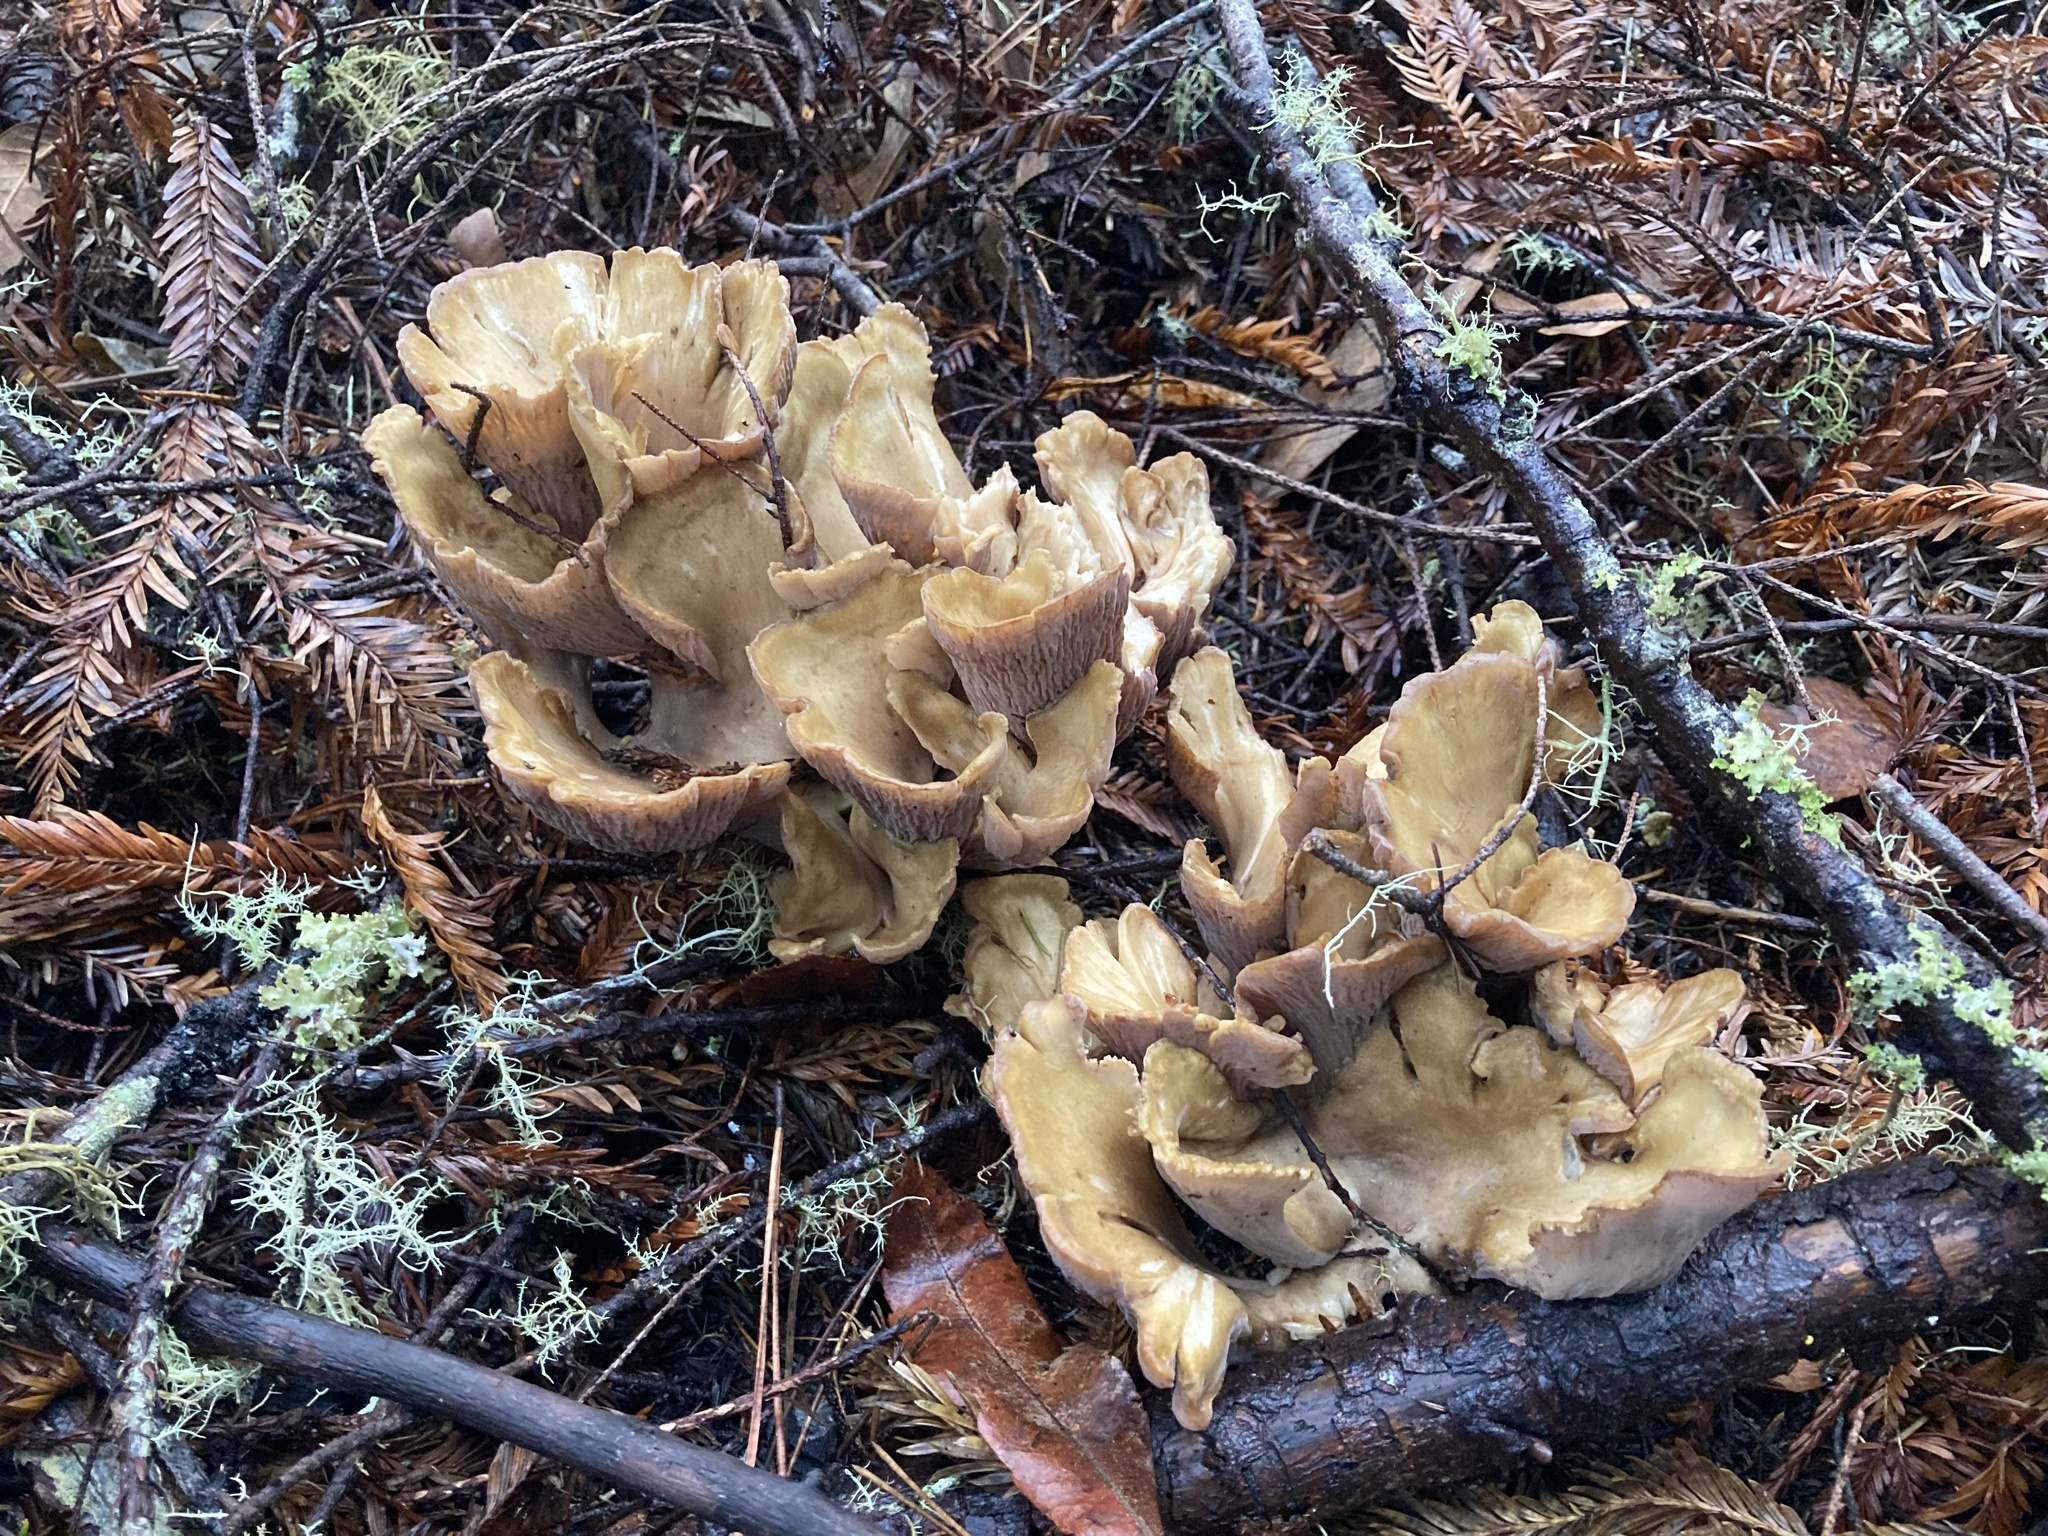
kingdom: Fungi
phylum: Basidiomycota
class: Agaricomycetes
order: Gomphales
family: Gomphaceae
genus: Gomphus
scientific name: Gomphus clavatus
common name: Pig's ear
